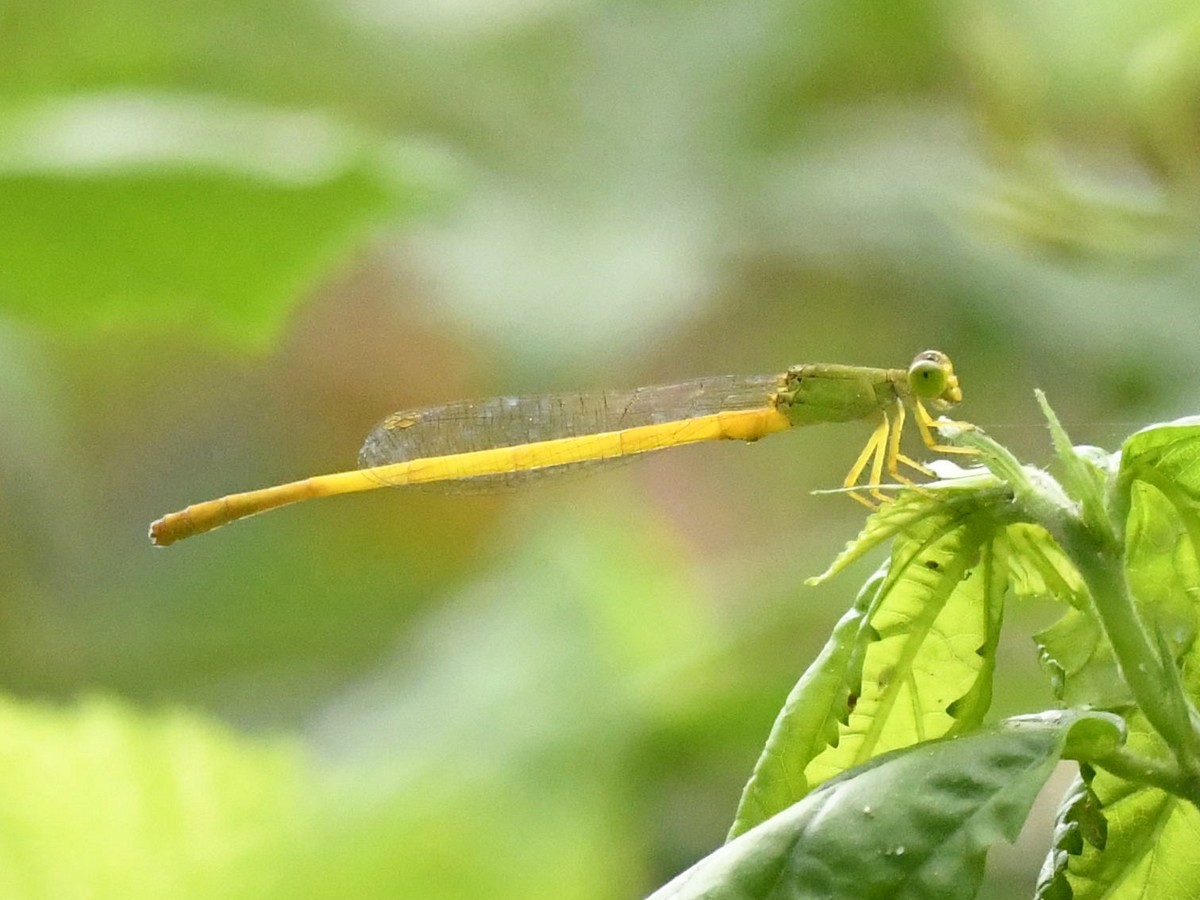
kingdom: Animalia
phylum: Arthropoda
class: Insecta
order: Odonata
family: Coenagrionidae
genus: Ceriagrion
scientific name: Ceriagrion coromandelianum
